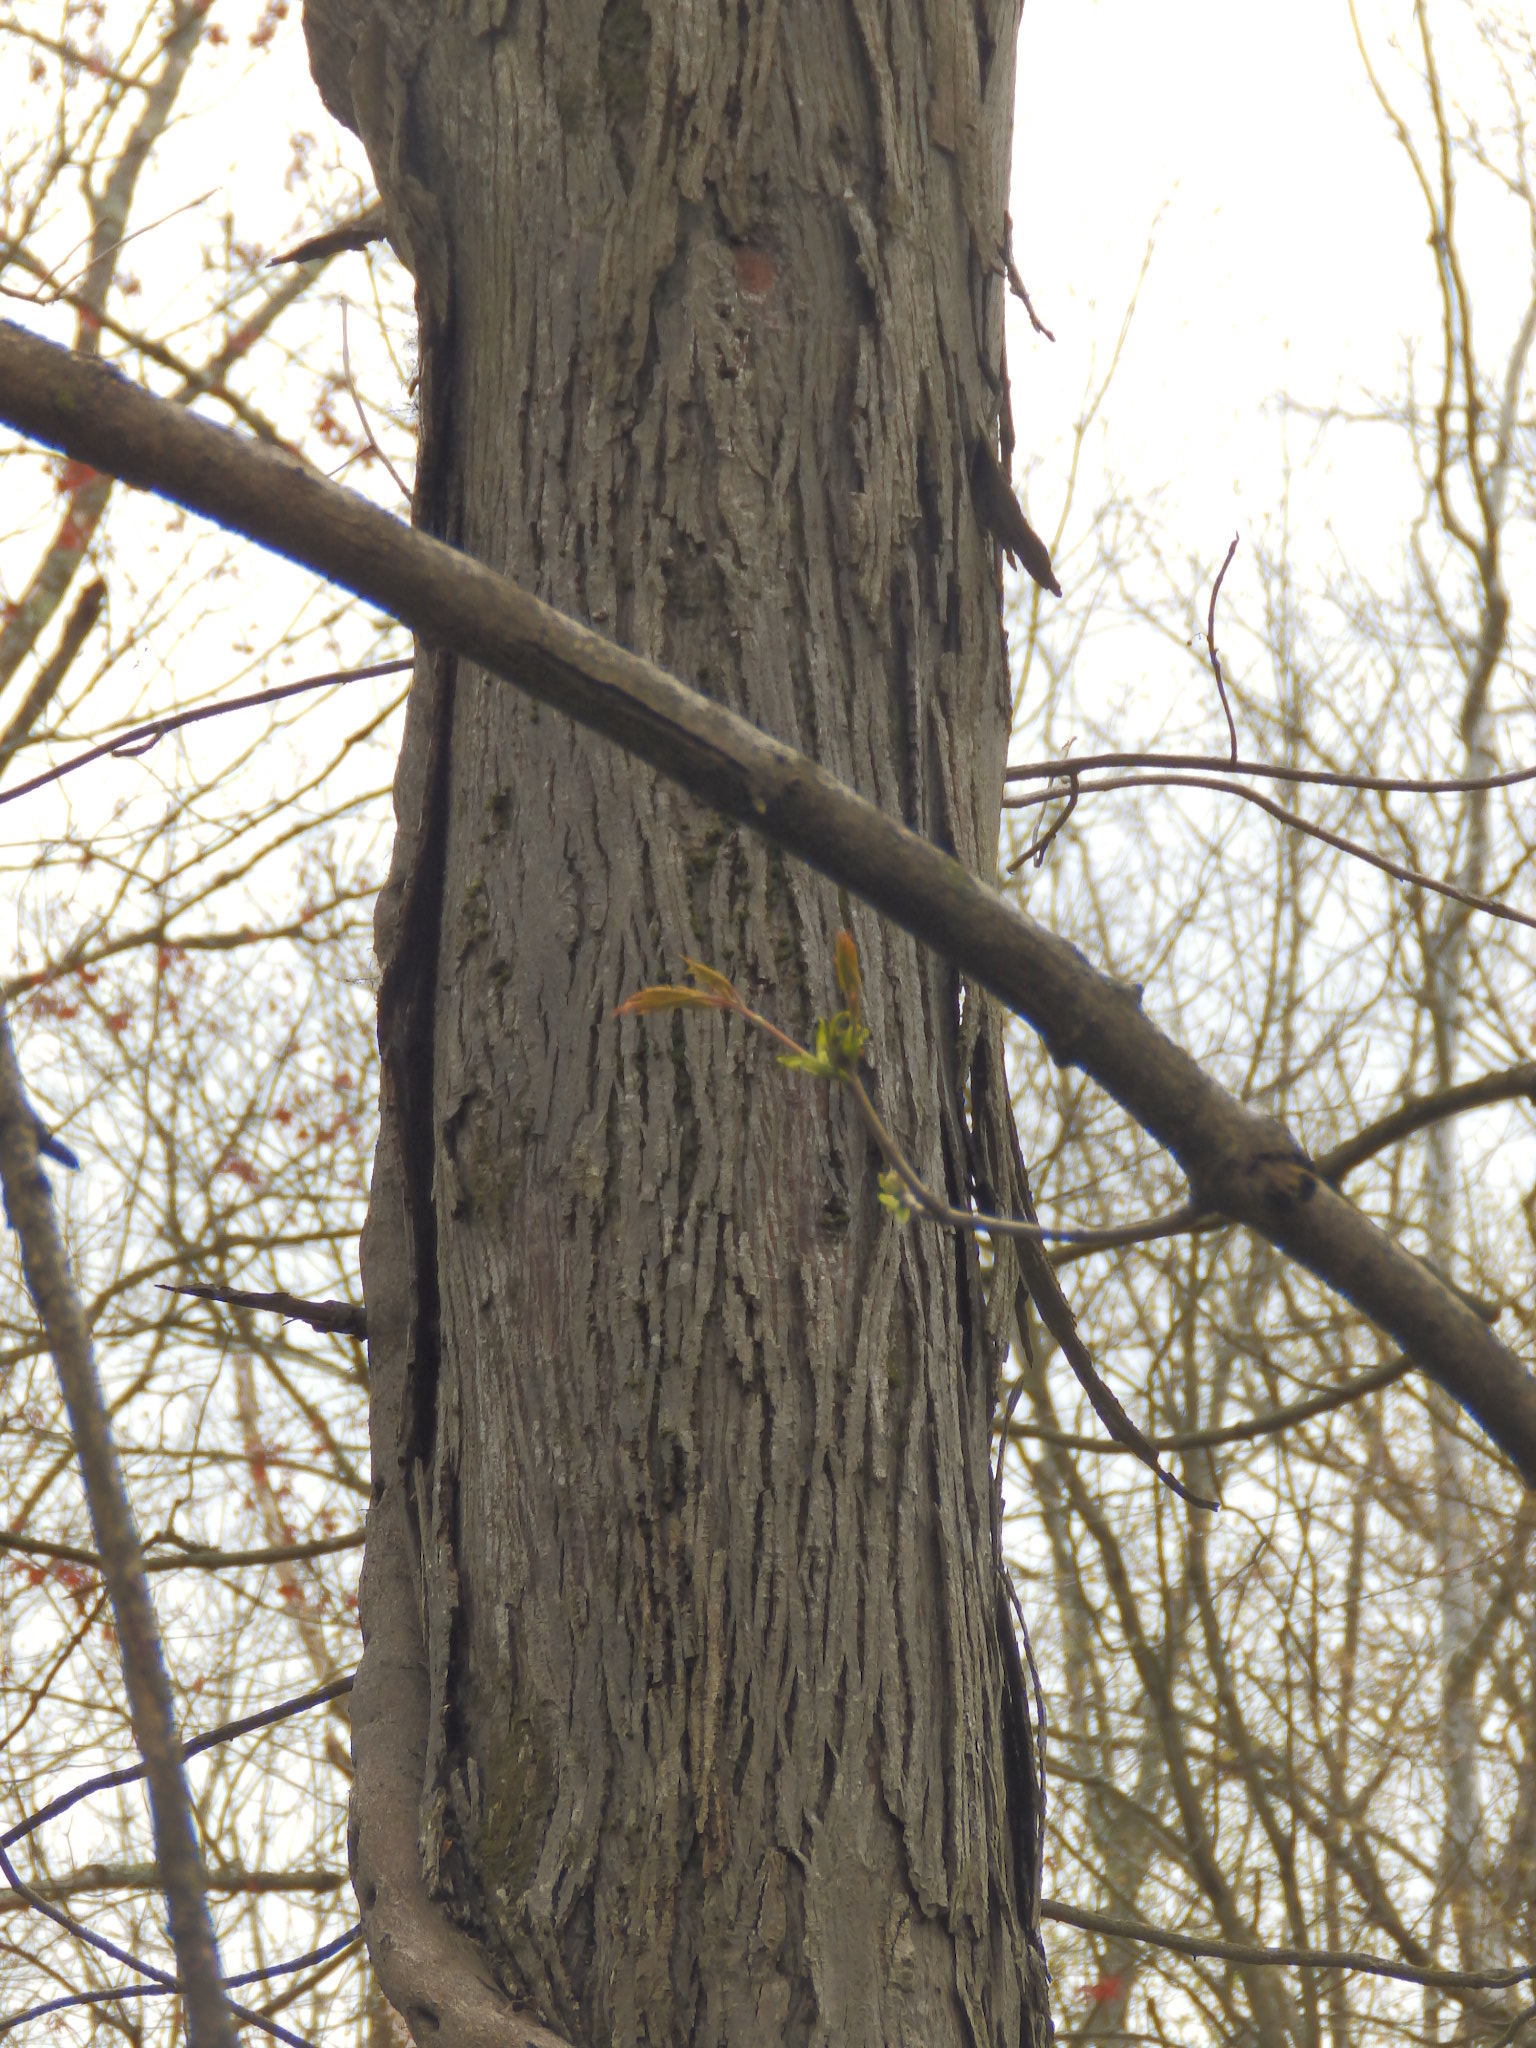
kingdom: Plantae
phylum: Tracheophyta
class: Magnoliopsida
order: Fagales
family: Juglandaceae
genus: Carya
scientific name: Carya ovata
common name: Shagbark hickory
